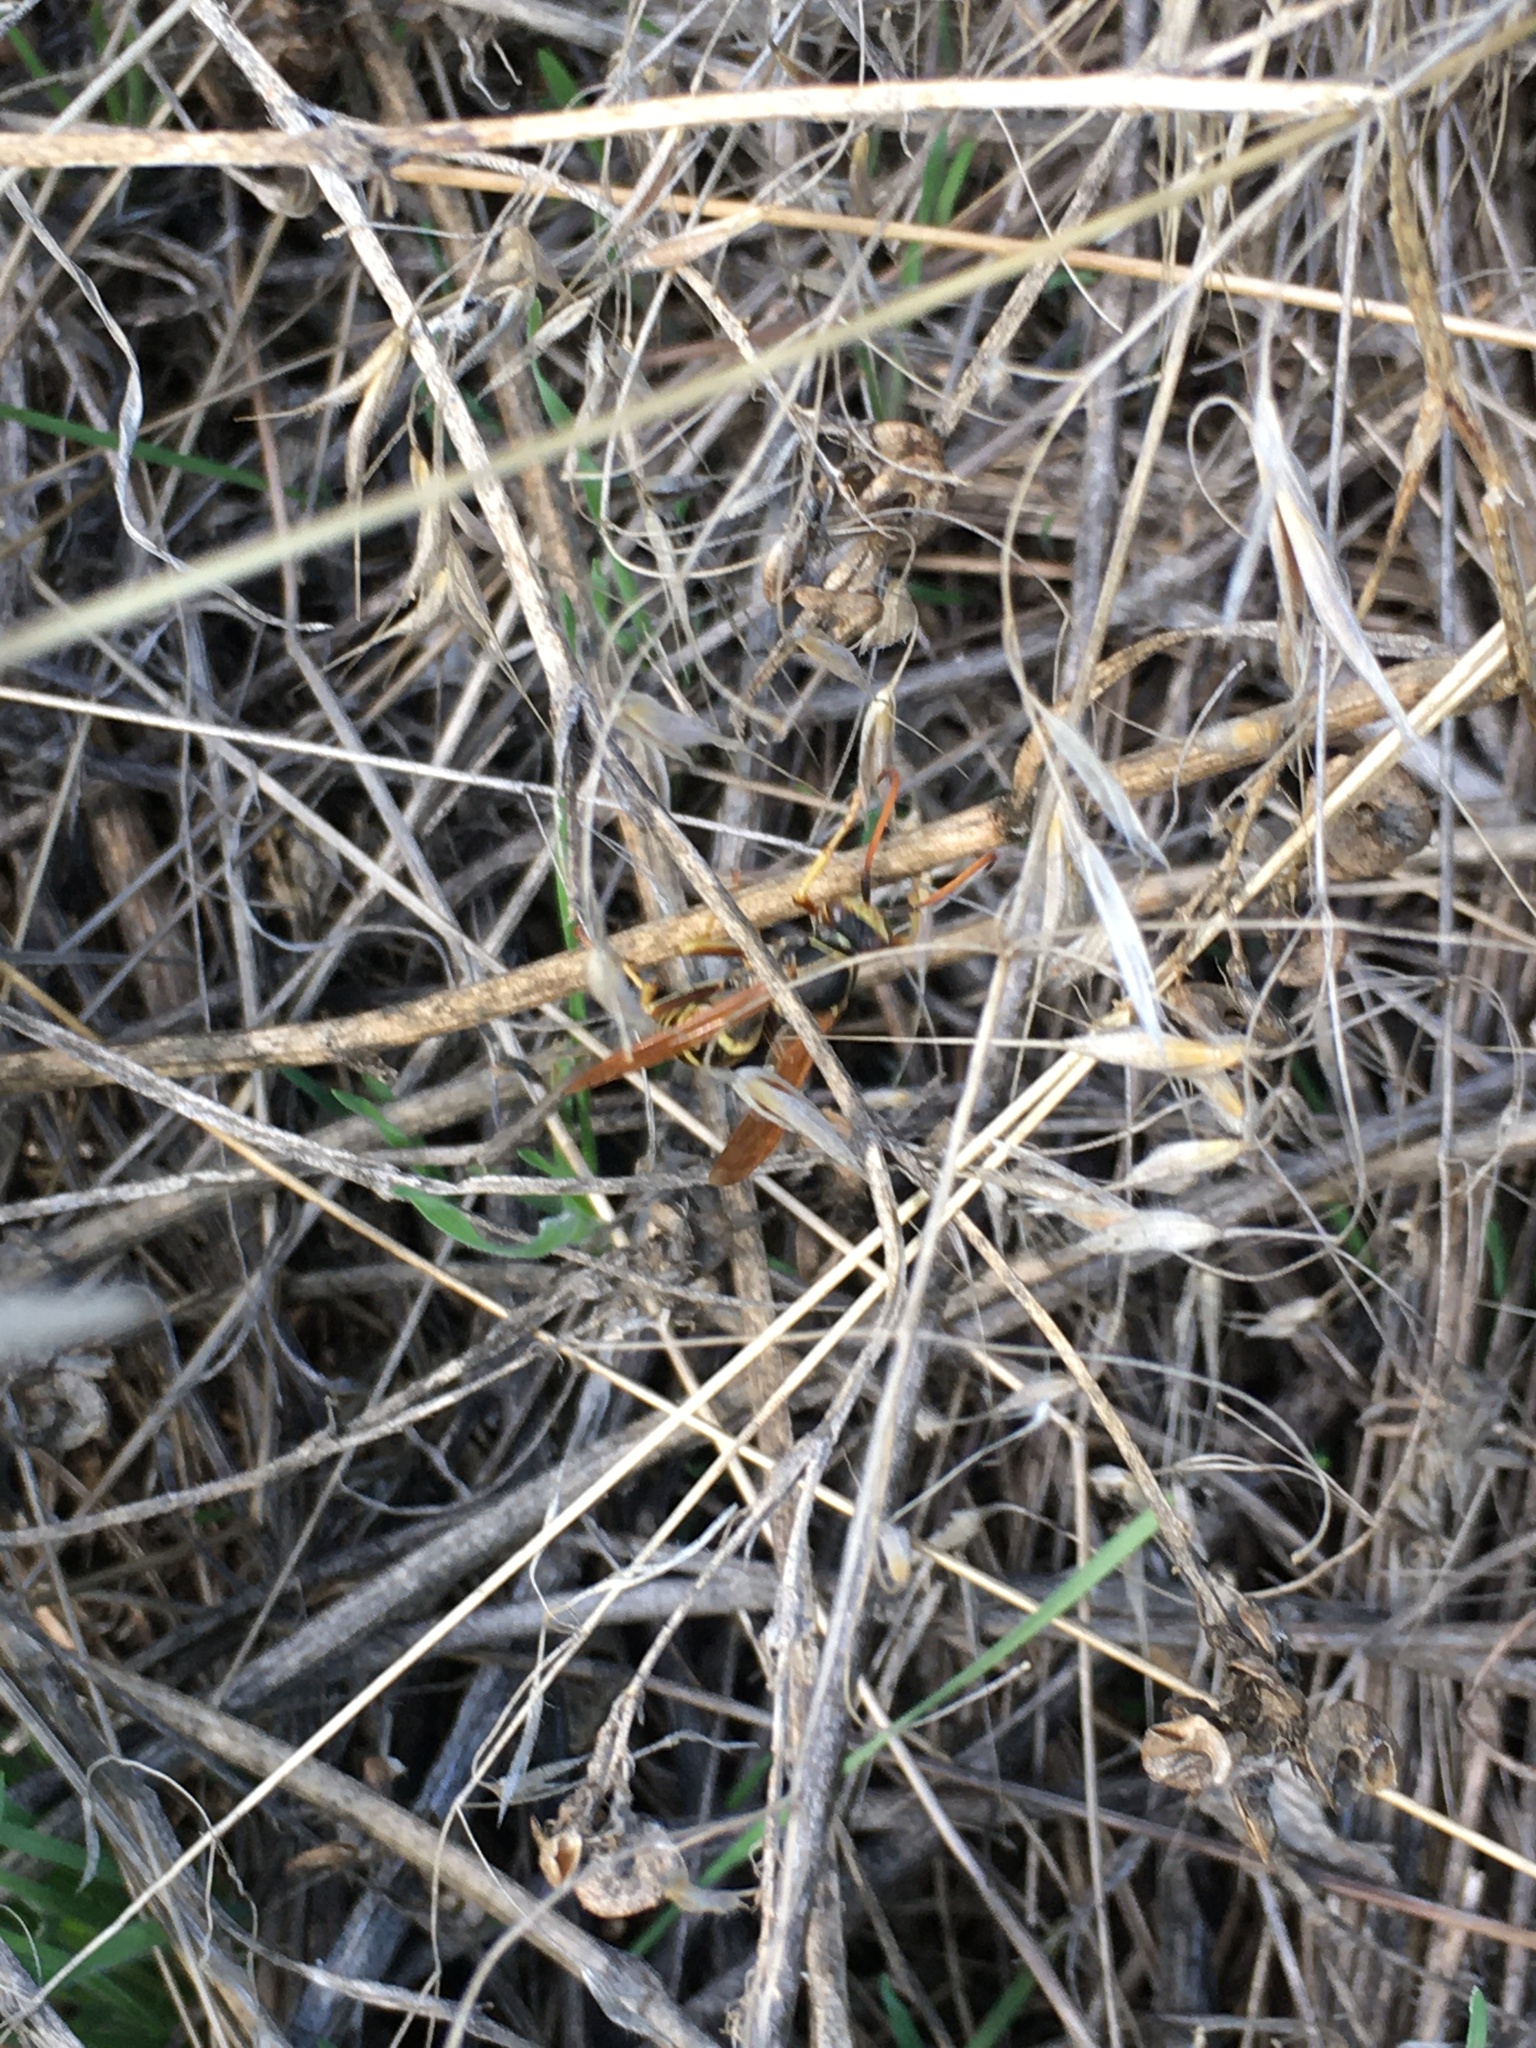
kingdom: Animalia
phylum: Arthropoda
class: Insecta
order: Hymenoptera
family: Eumenidae
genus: Polistes
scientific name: Polistes aurifer
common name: Paper wasp
